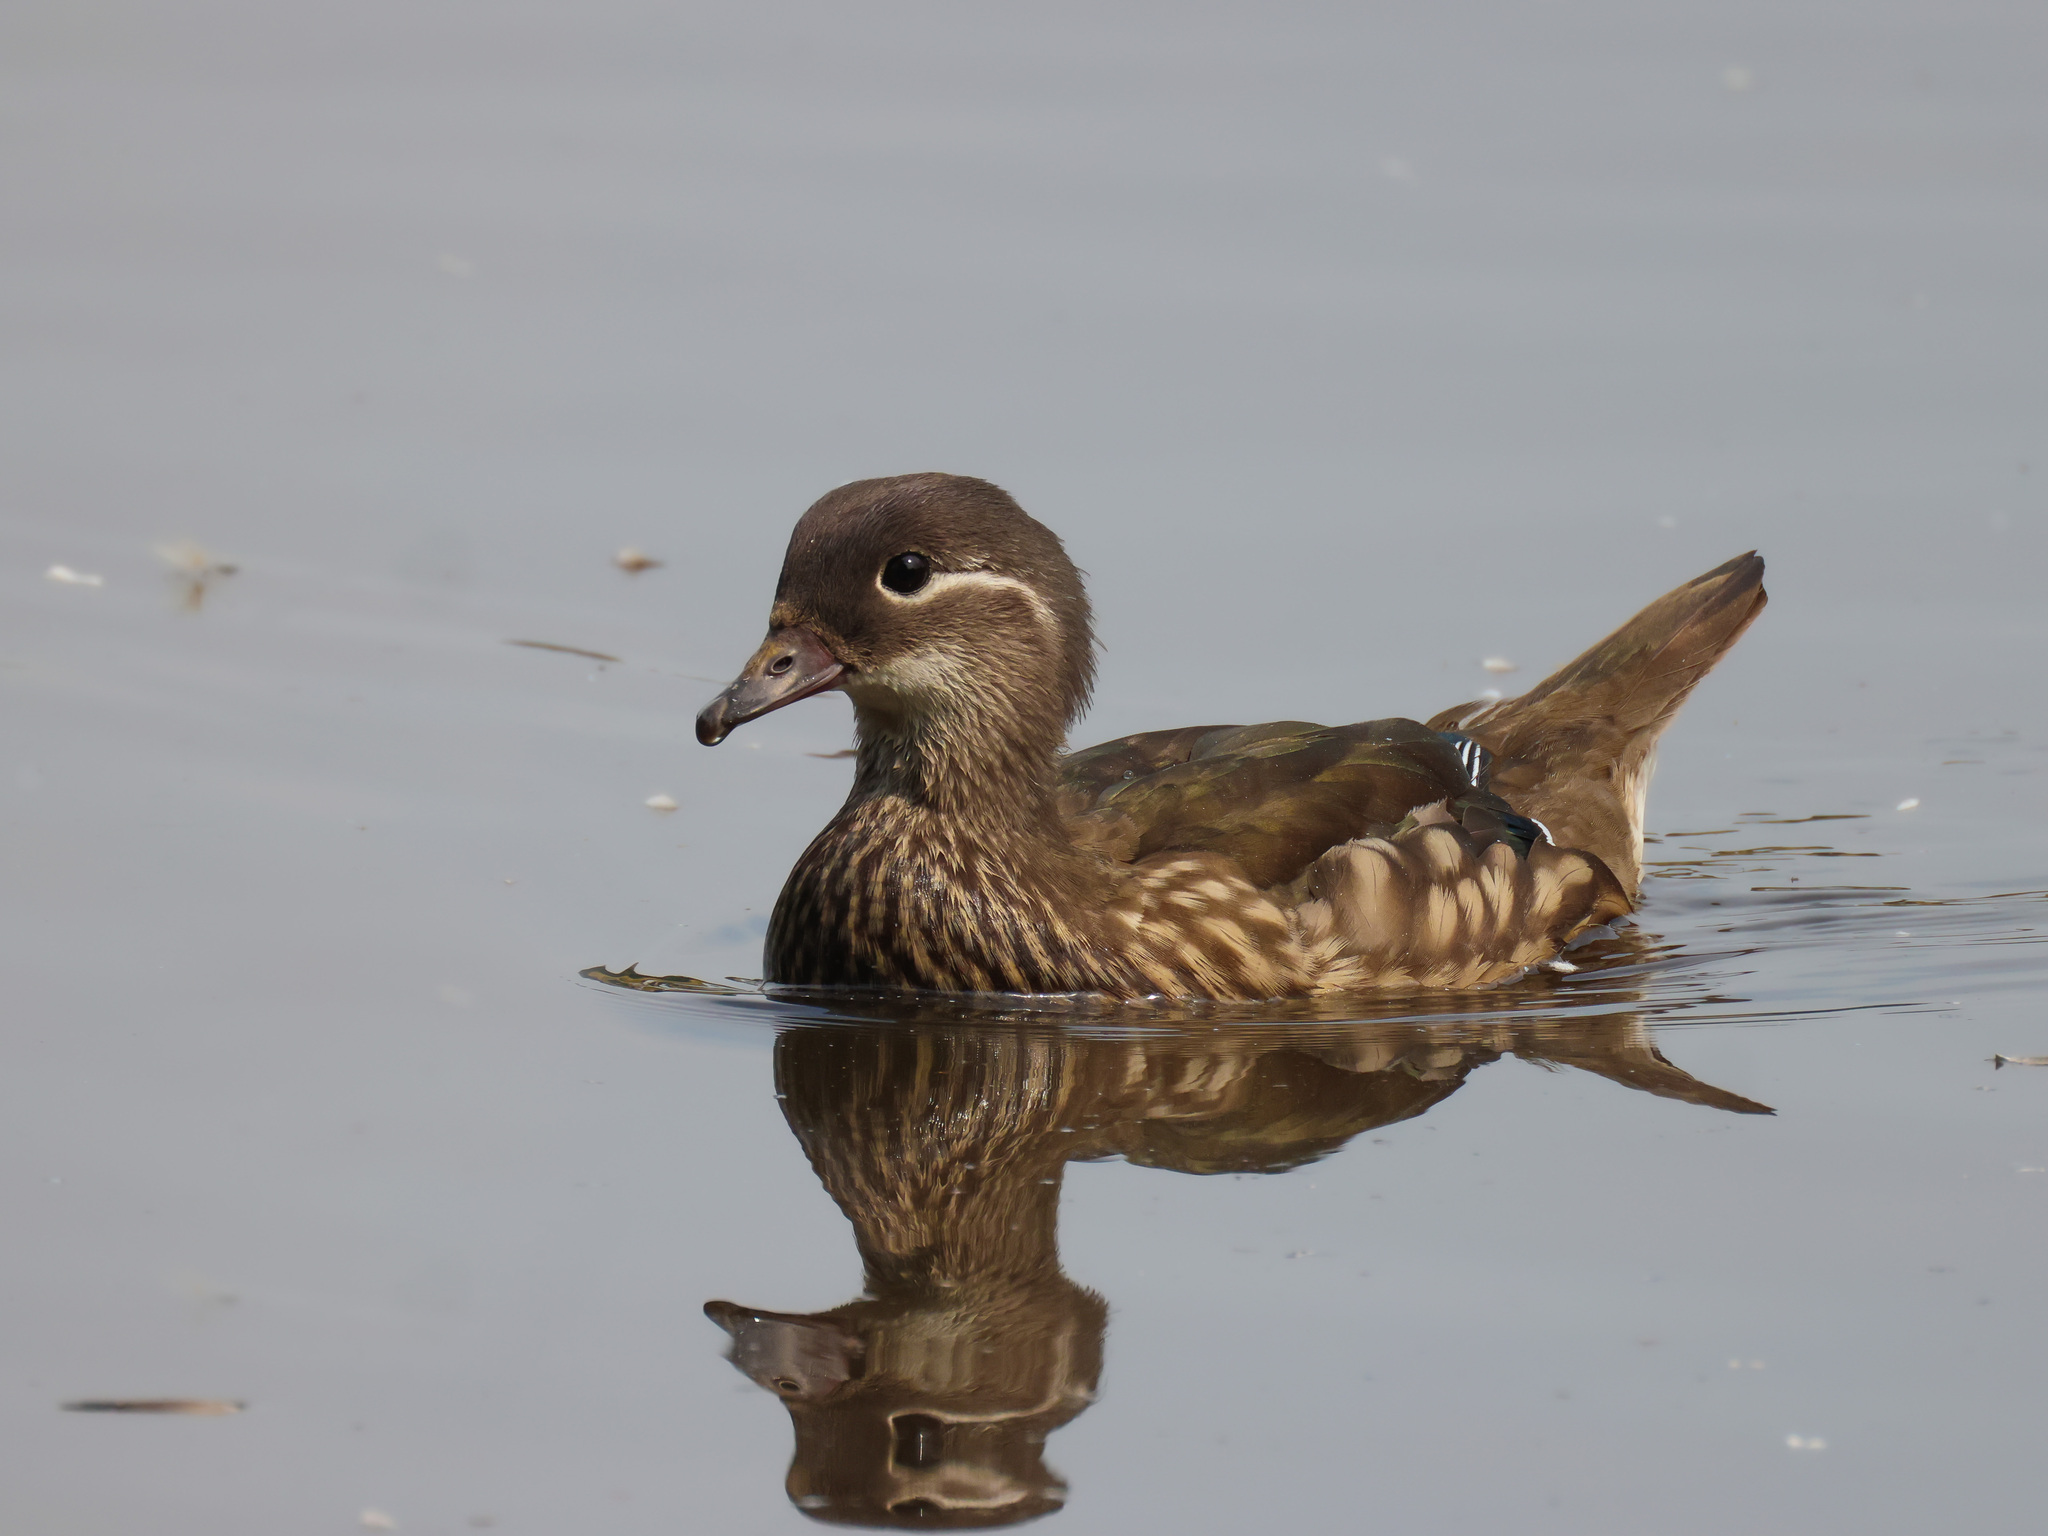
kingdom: Animalia
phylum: Chordata
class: Aves
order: Anseriformes
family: Anatidae
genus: Aix
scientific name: Aix galericulata
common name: Mandarin duck
